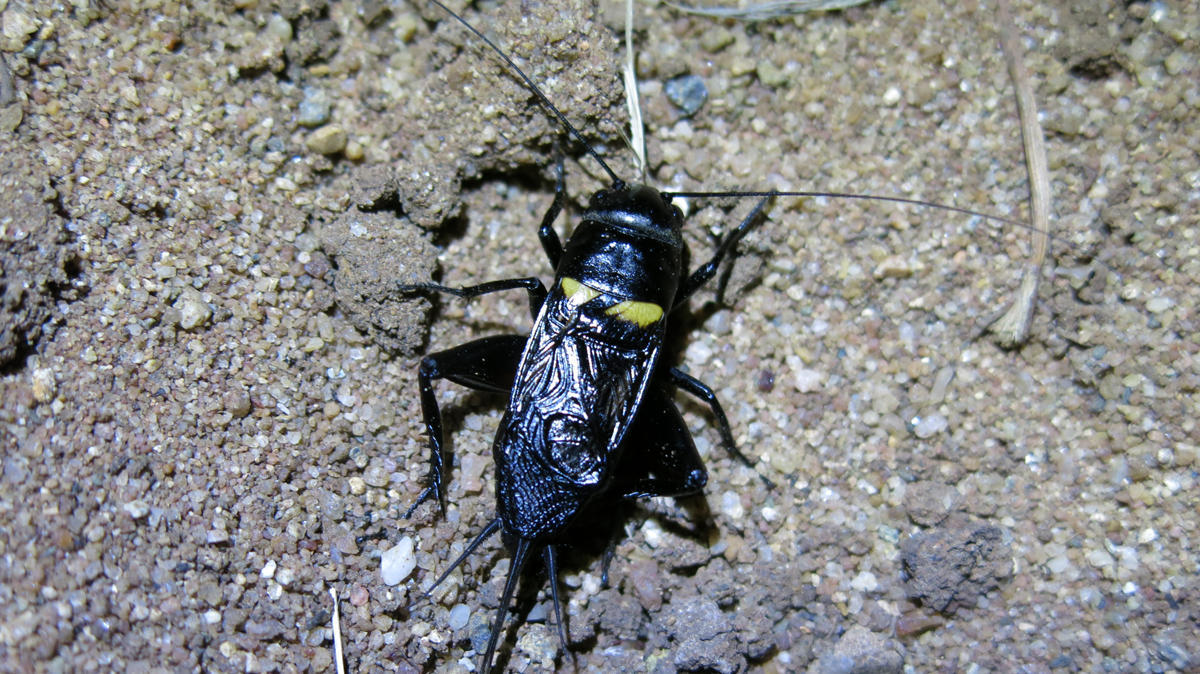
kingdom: Animalia
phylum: Arthropoda
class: Insecta
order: Orthoptera
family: Gryllidae
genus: Gryllus
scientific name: Gryllus bimaculatus
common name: Two-spotted cricket
